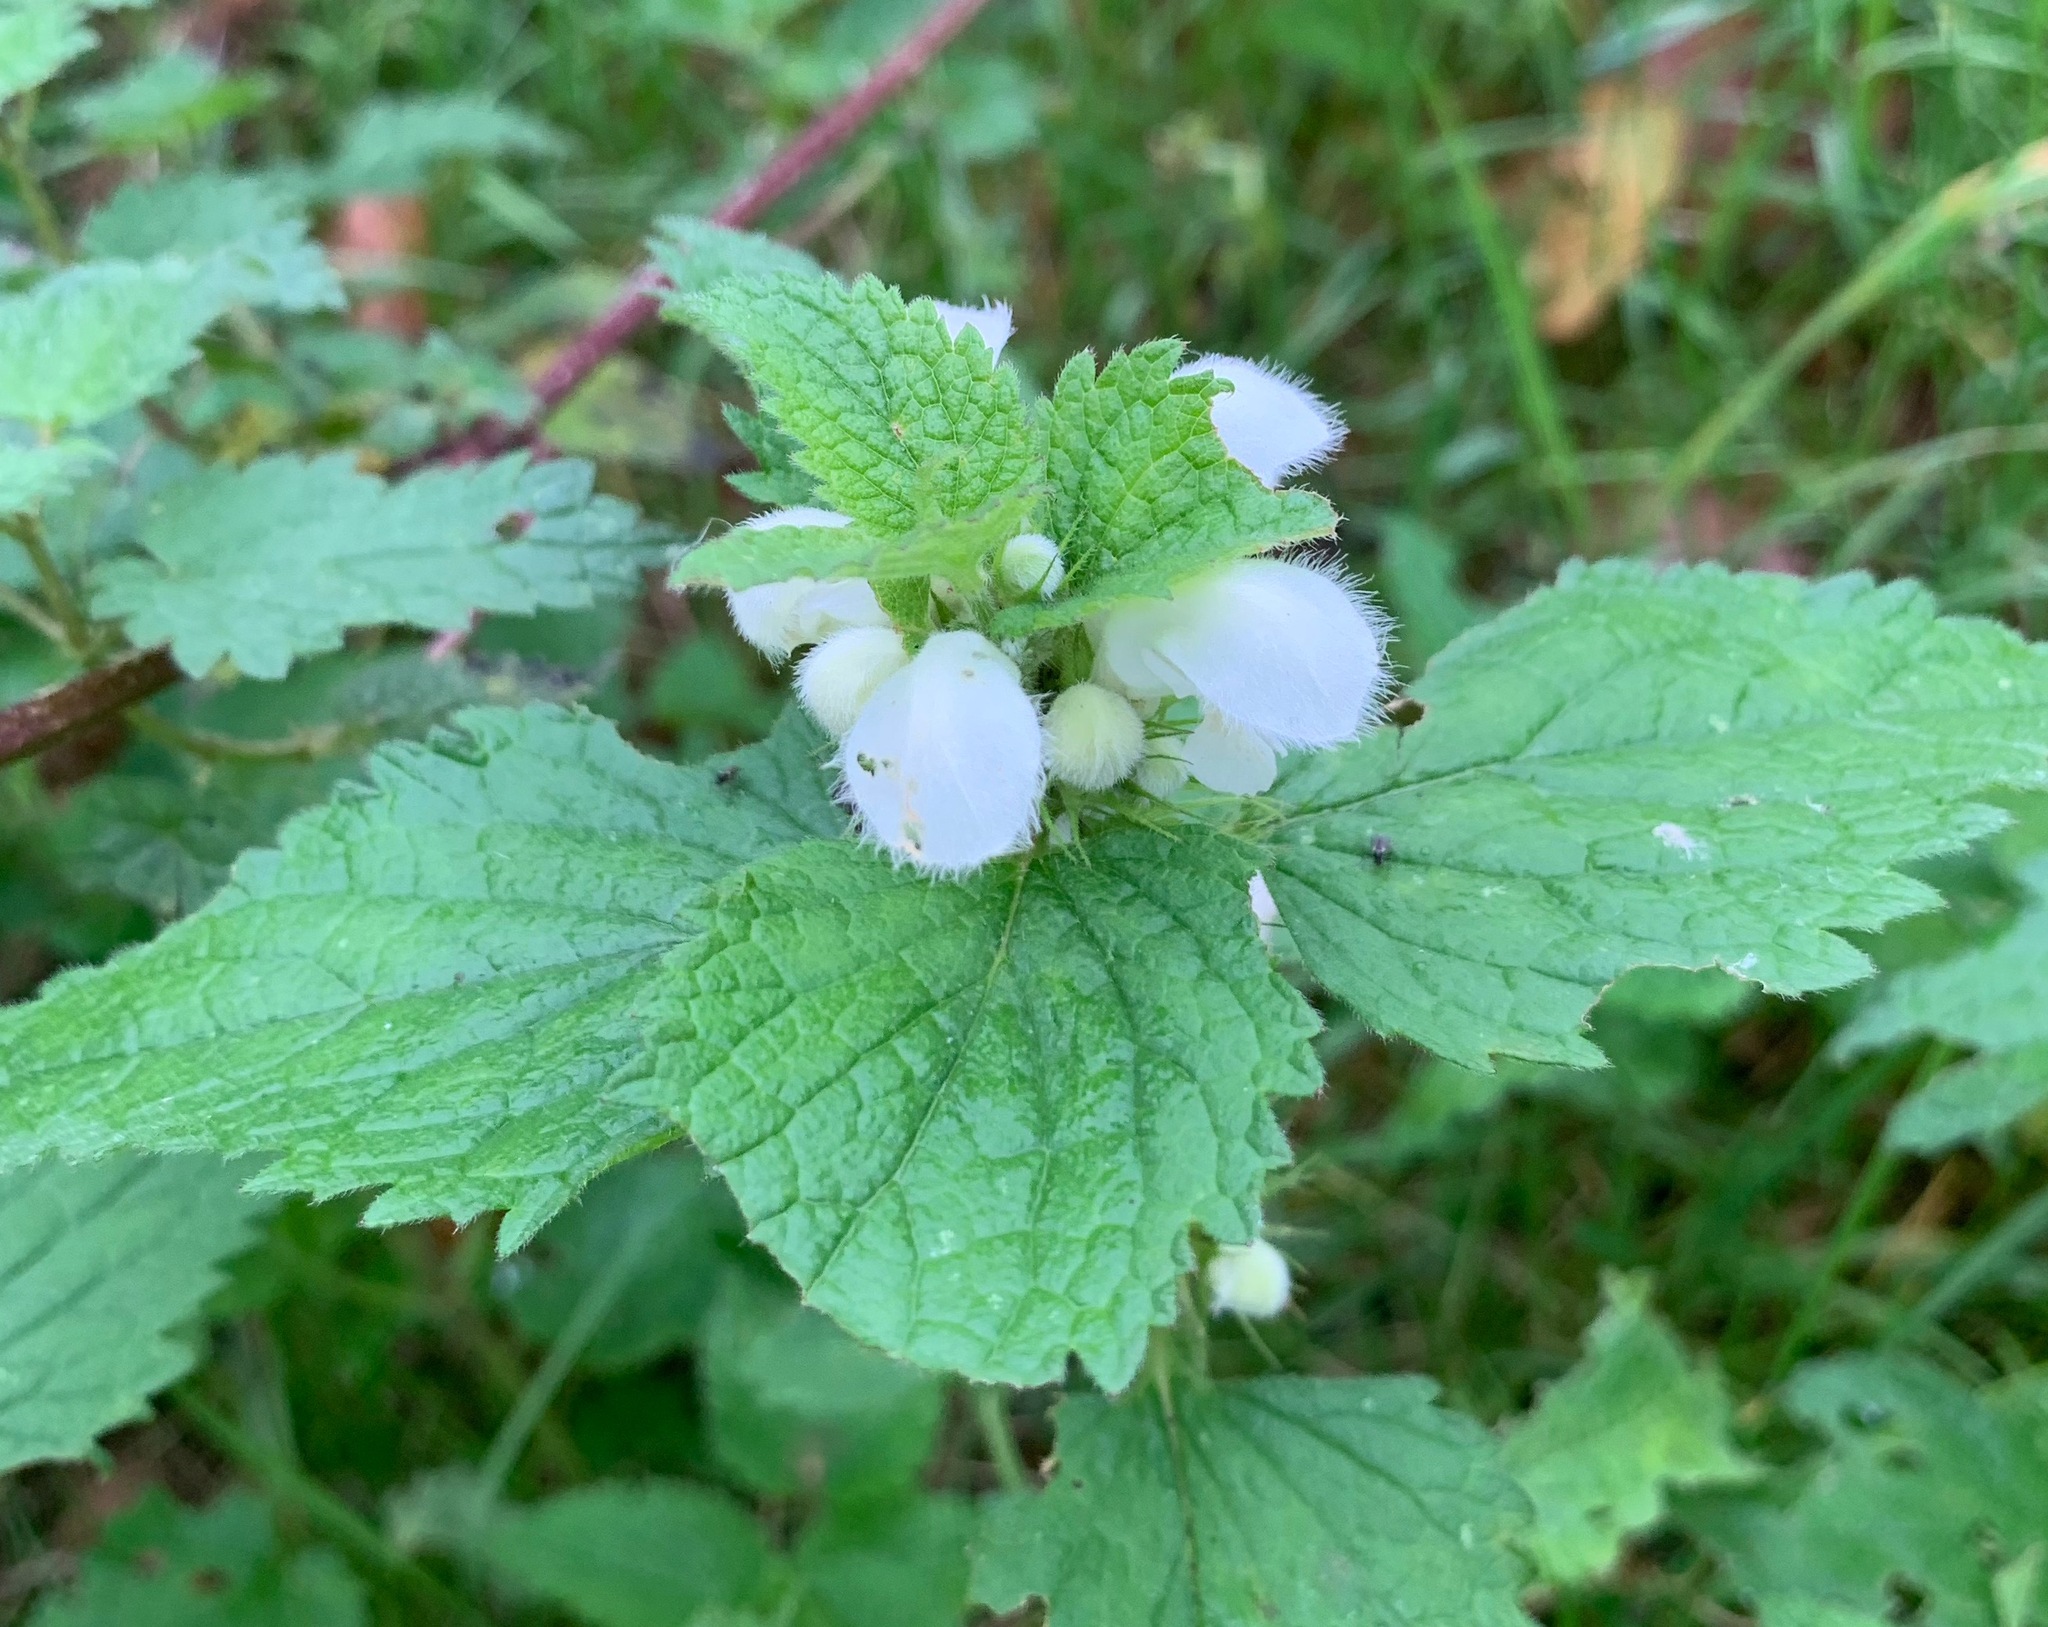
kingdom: Plantae
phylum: Tracheophyta
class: Magnoliopsida
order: Lamiales
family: Lamiaceae
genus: Lamium
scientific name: Lamium album
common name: White dead-nettle
